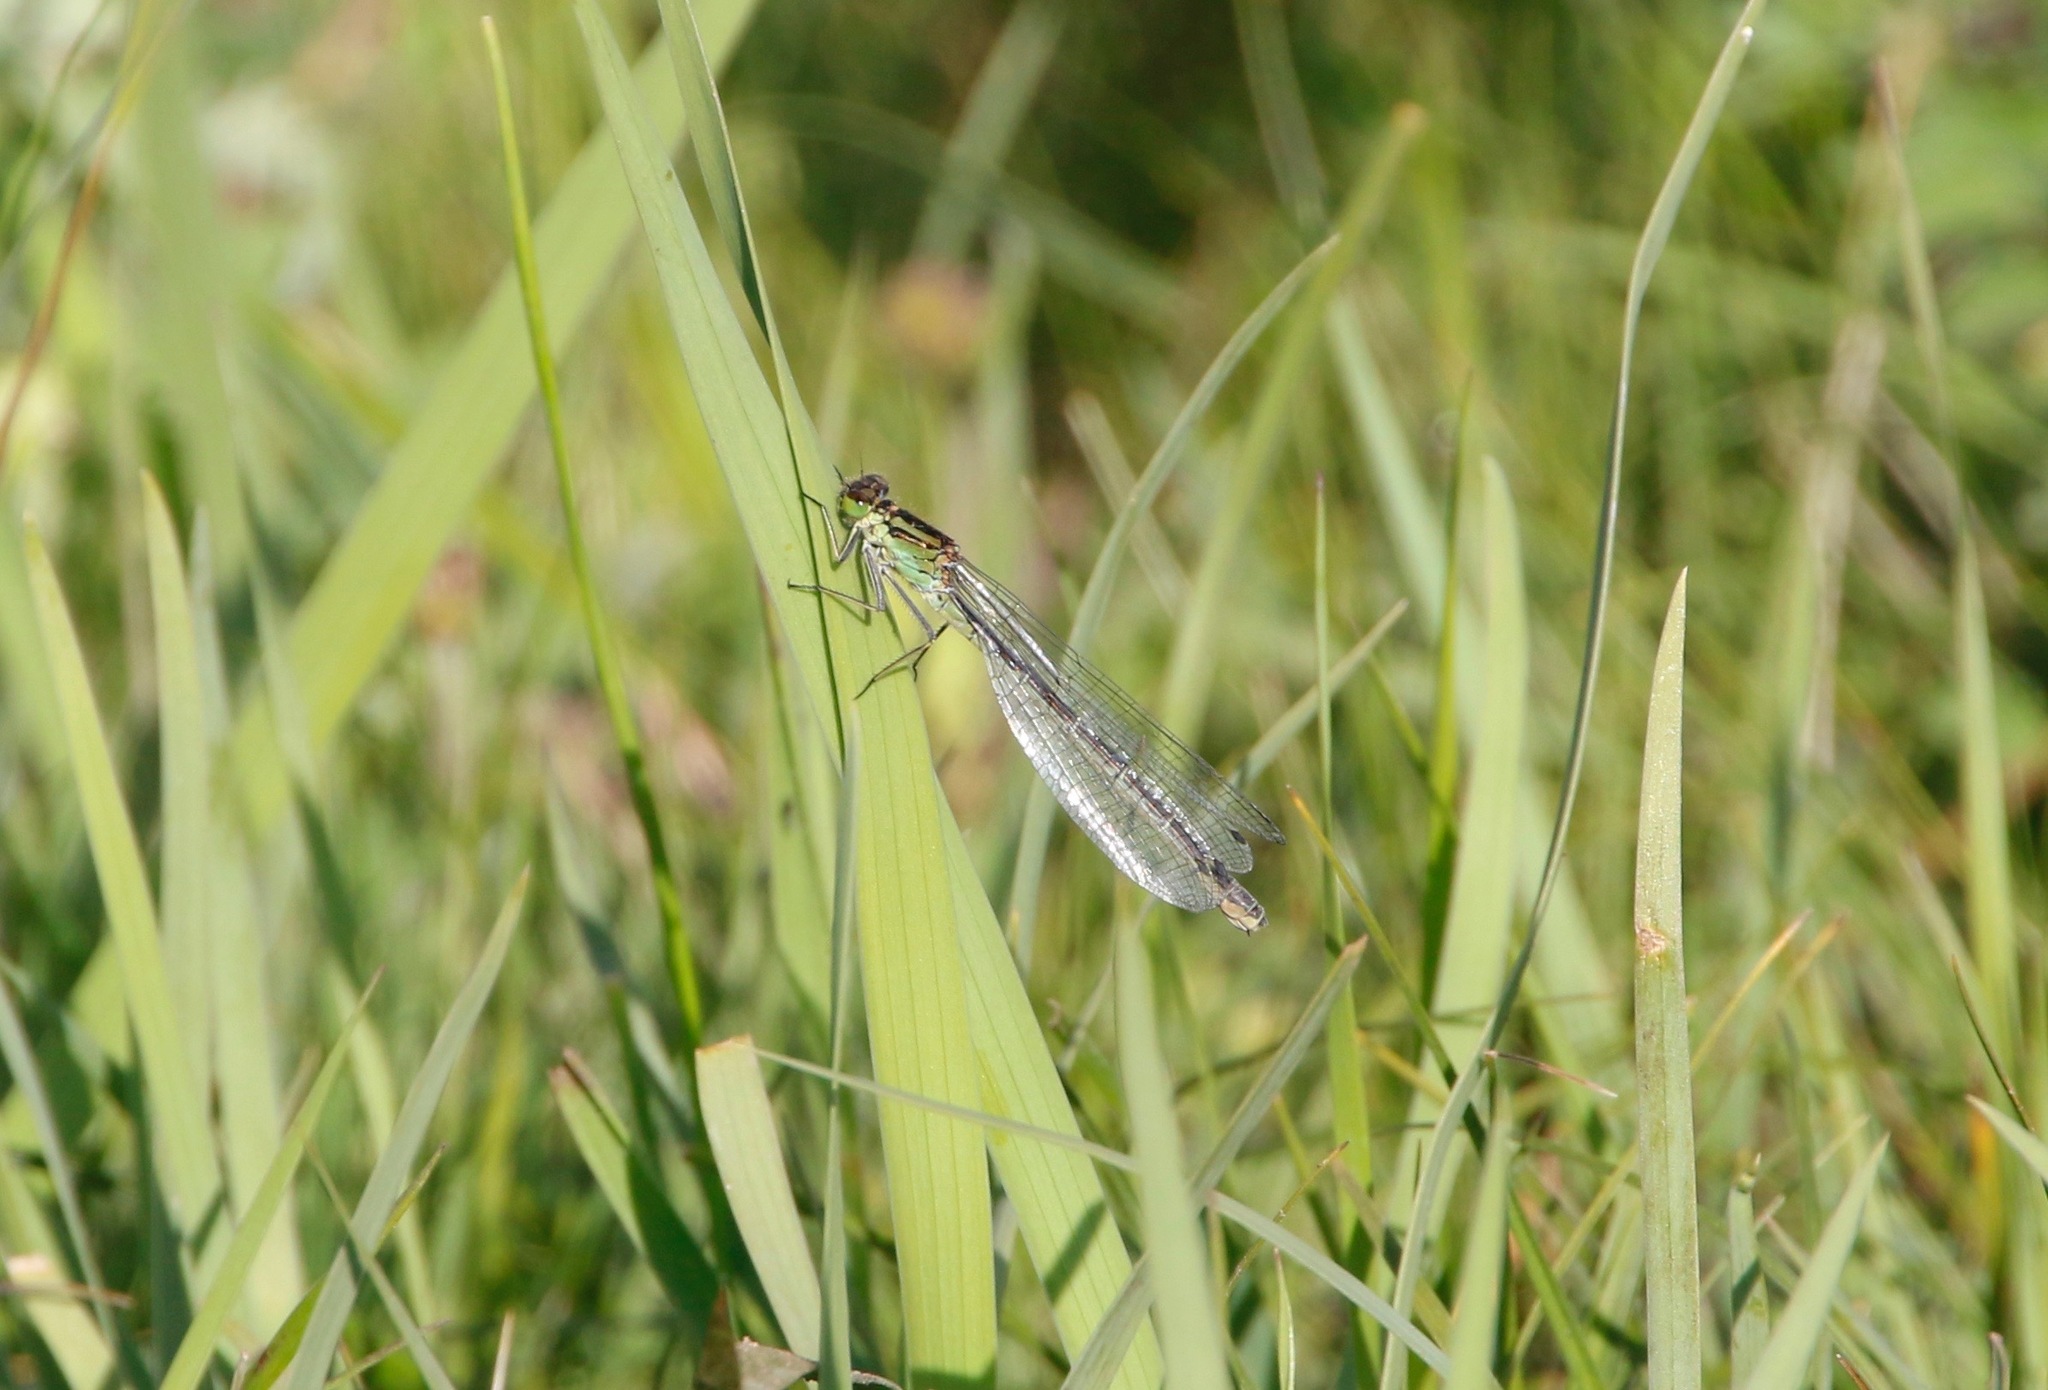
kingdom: Animalia
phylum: Arthropoda
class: Insecta
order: Odonata
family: Coenagrionidae
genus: Coenagrion
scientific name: Coenagrion lunulatum
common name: Irish damselfly
